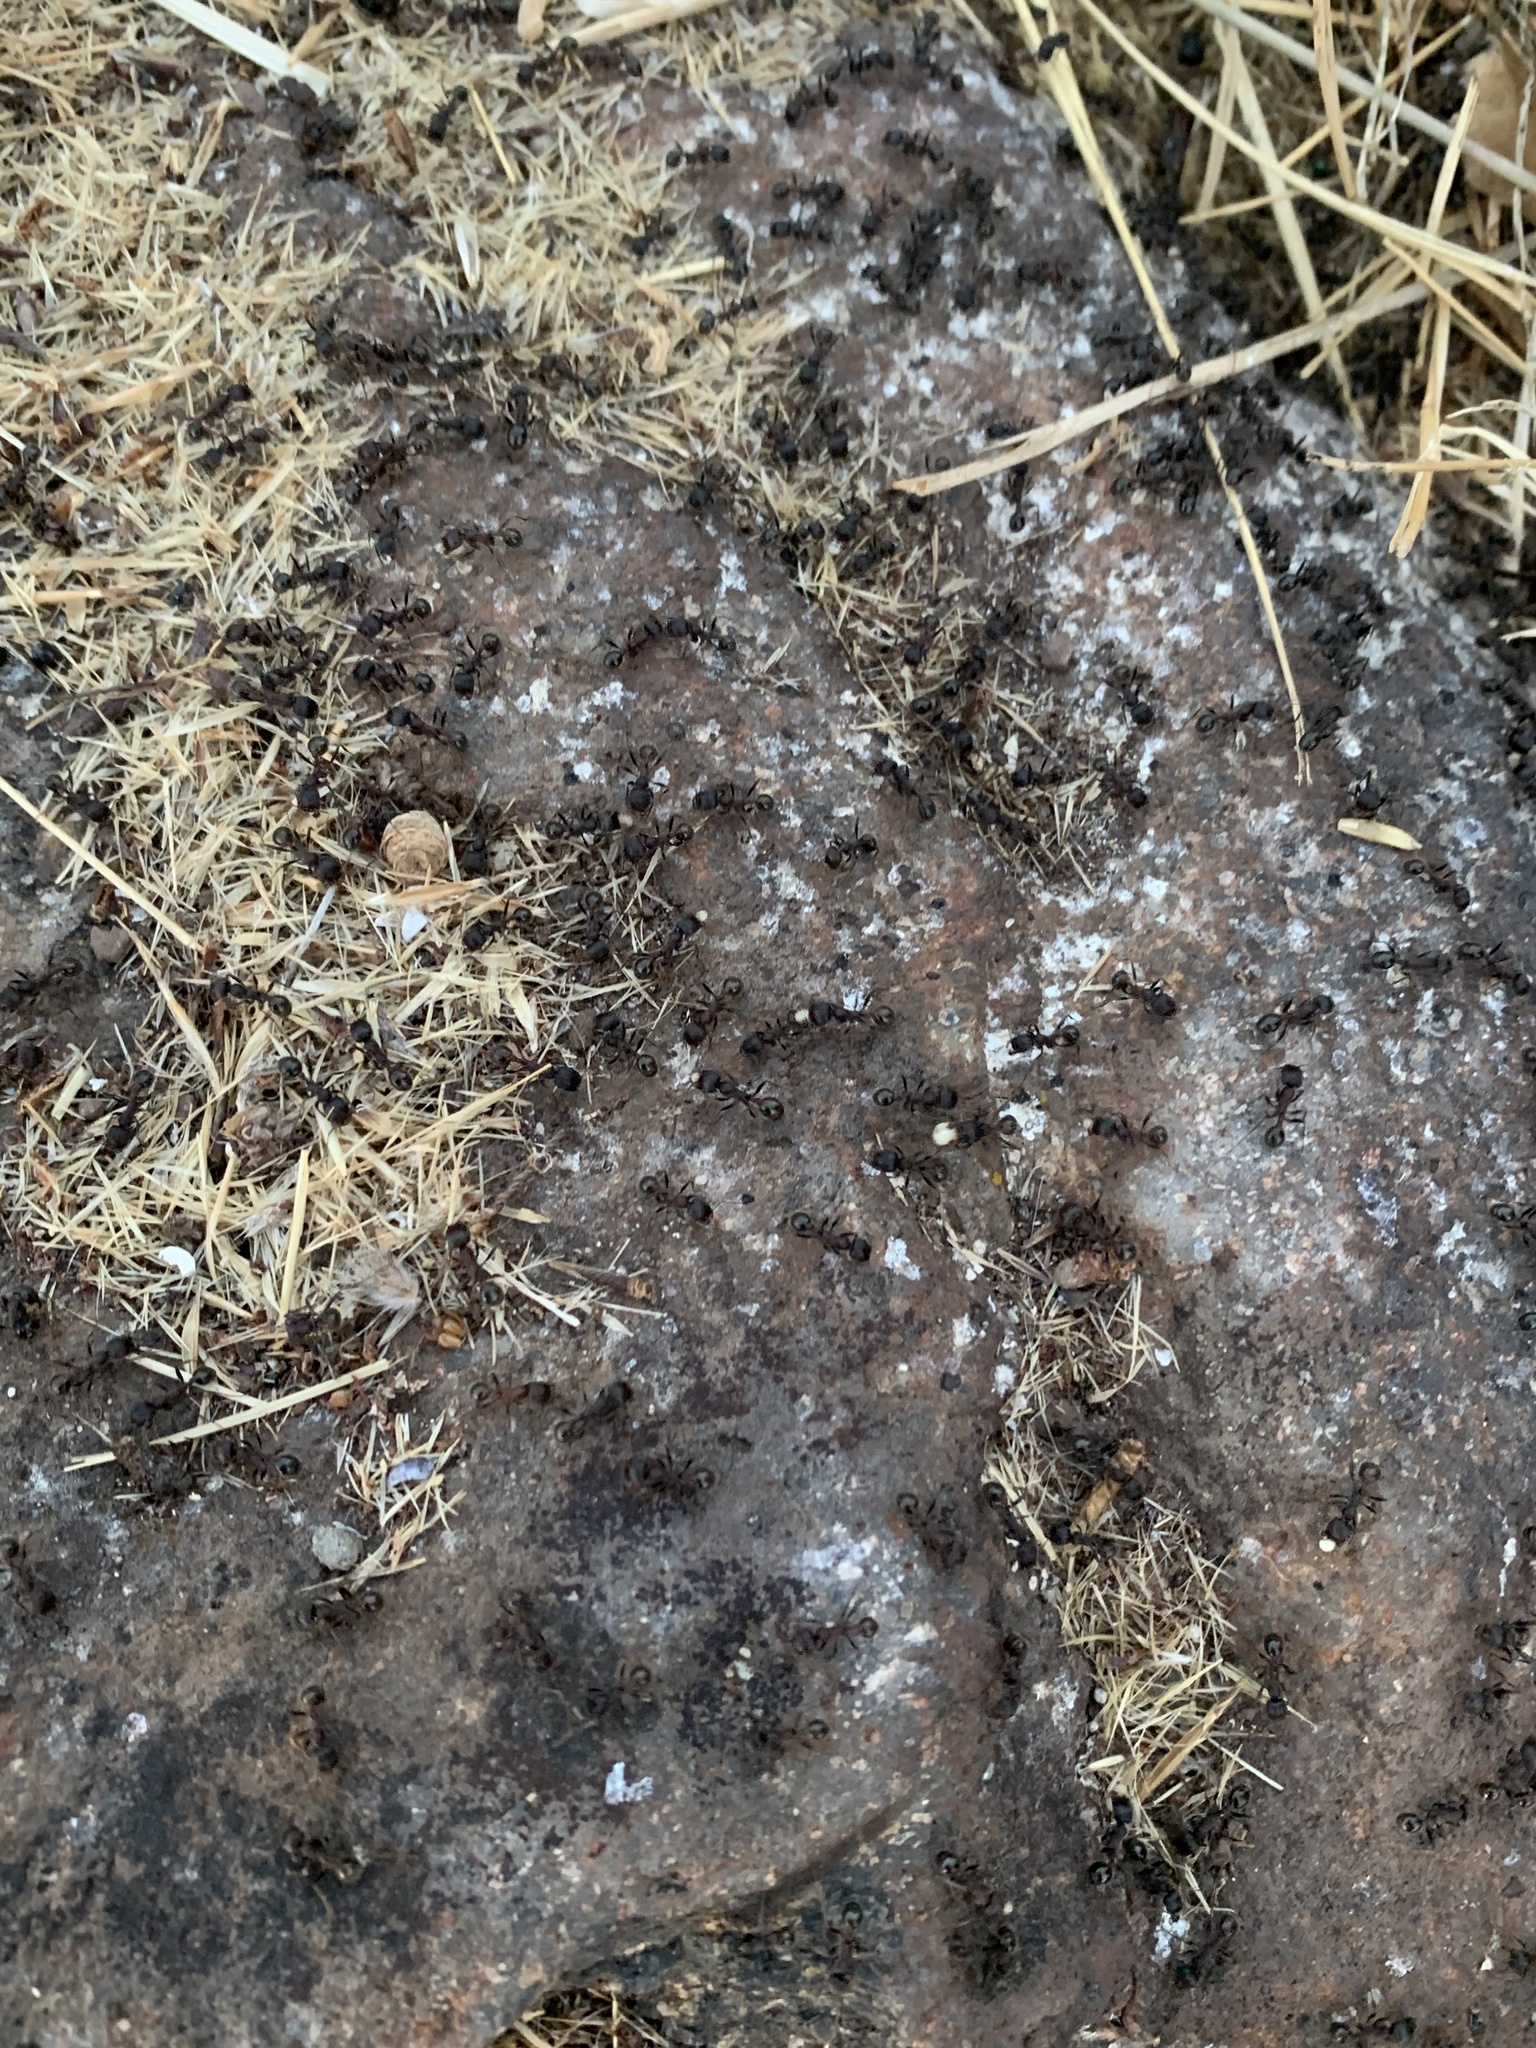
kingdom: Animalia
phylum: Arthropoda
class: Insecta
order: Hymenoptera
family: Formicidae
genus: Veromessor
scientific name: Veromessor andrei
